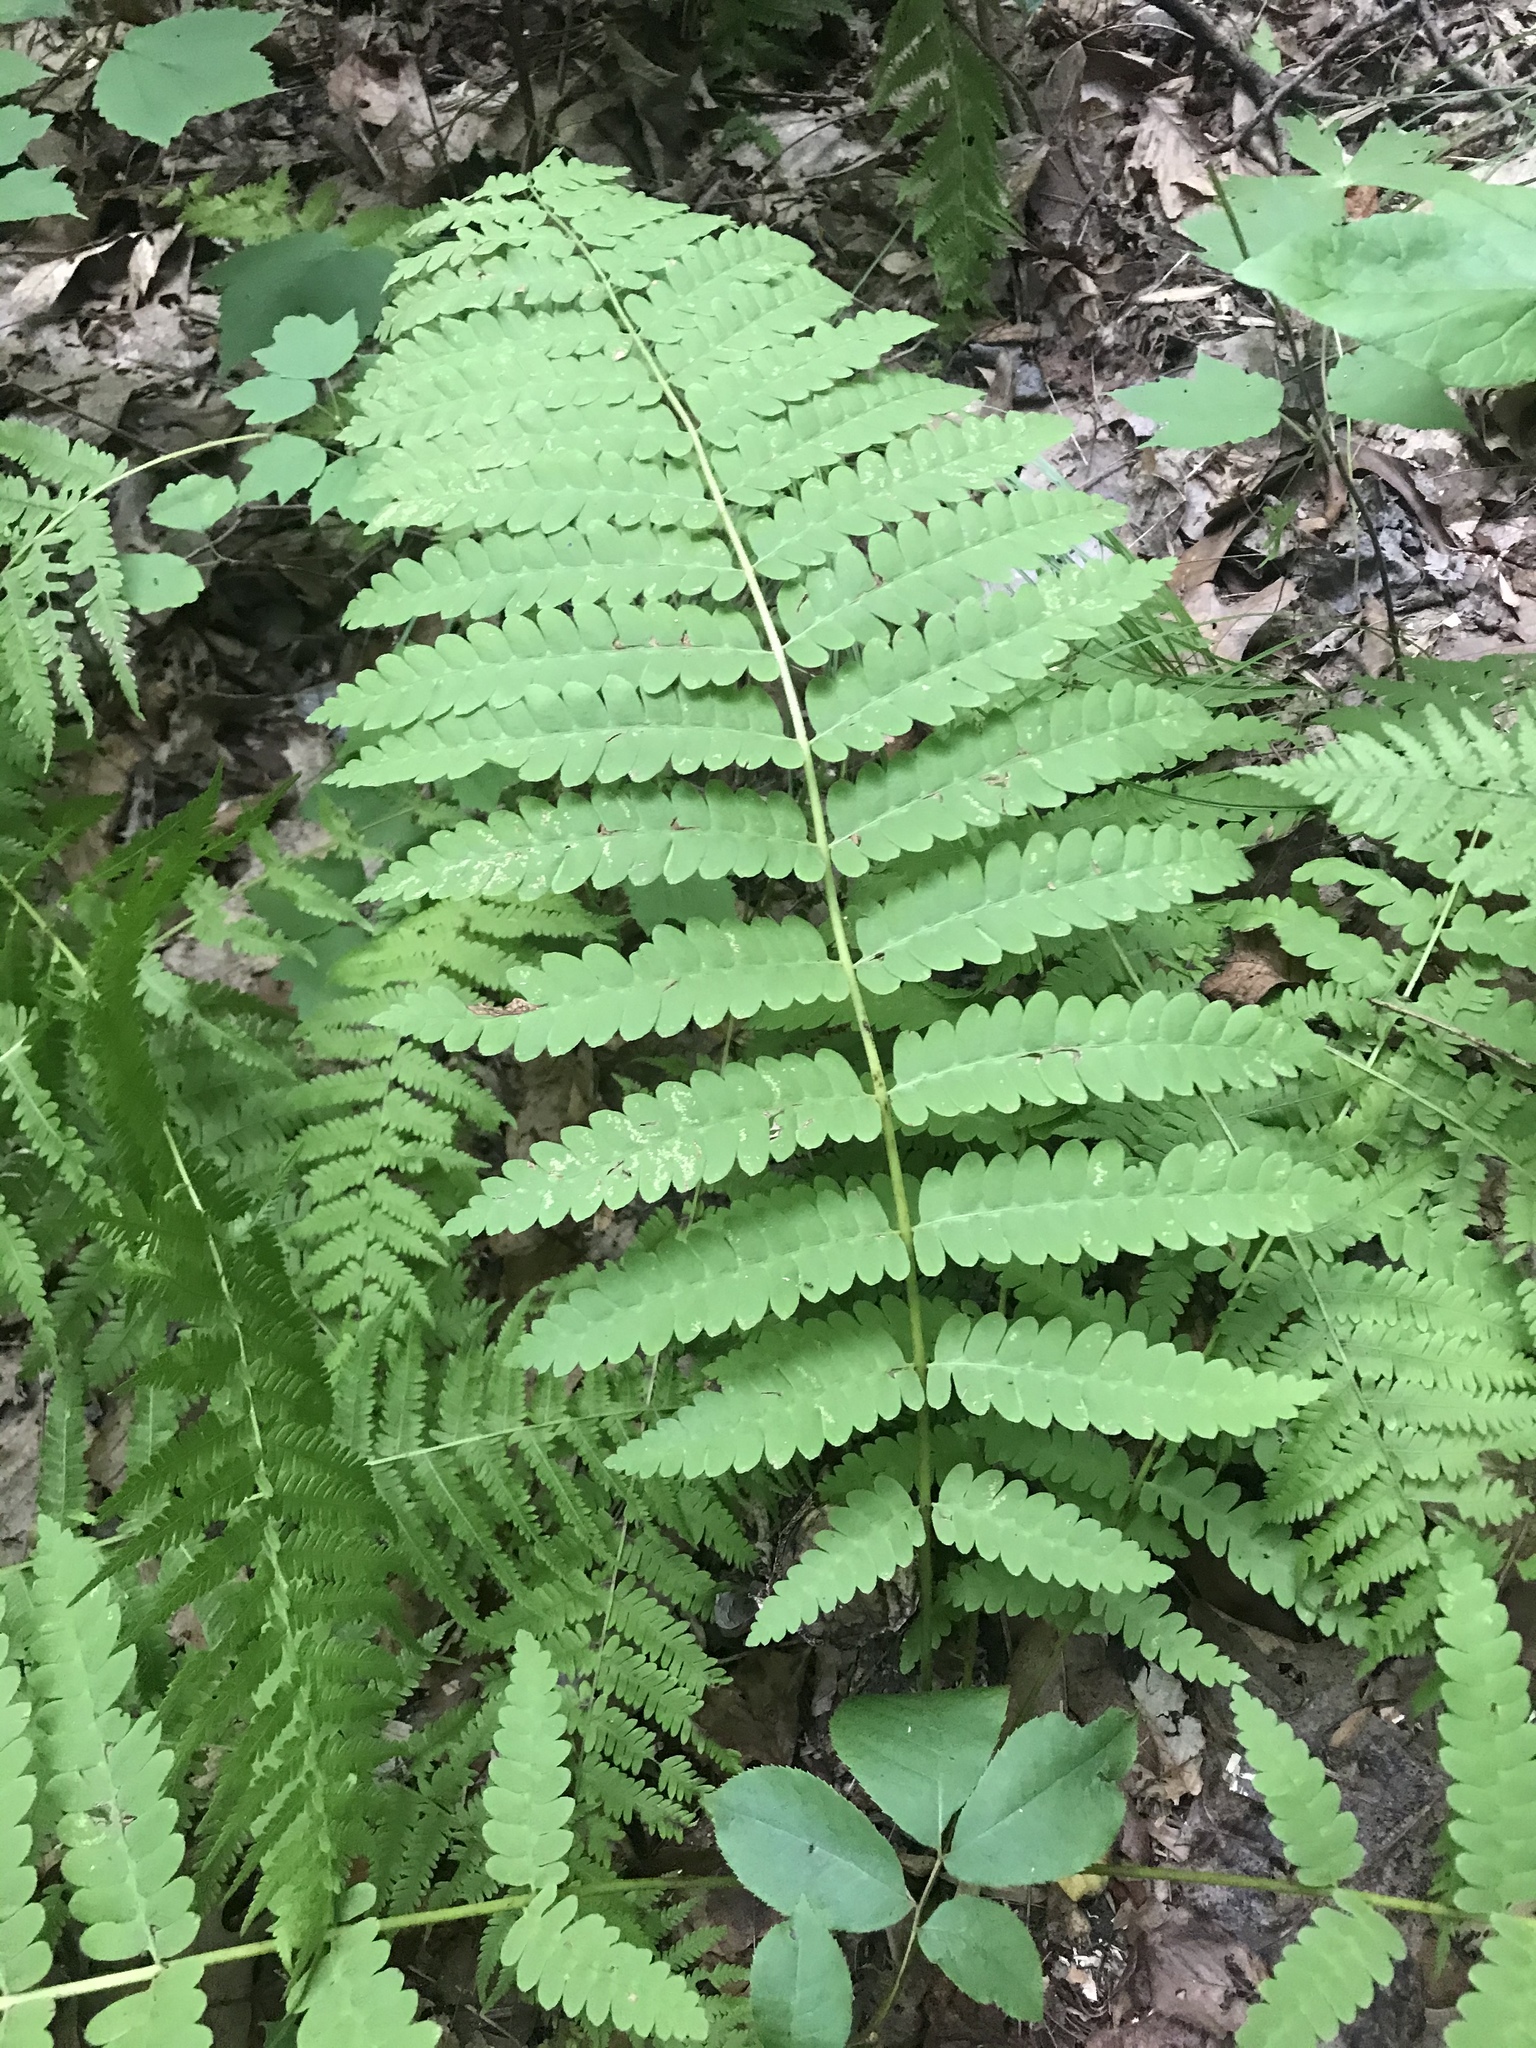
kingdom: Plantae
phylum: Tracheophyta
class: Polypodiopsida
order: Osmundales
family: Osmundaceae
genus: Claytosmunda
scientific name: Claytosmunda claytoniana
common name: Clayton's fern
